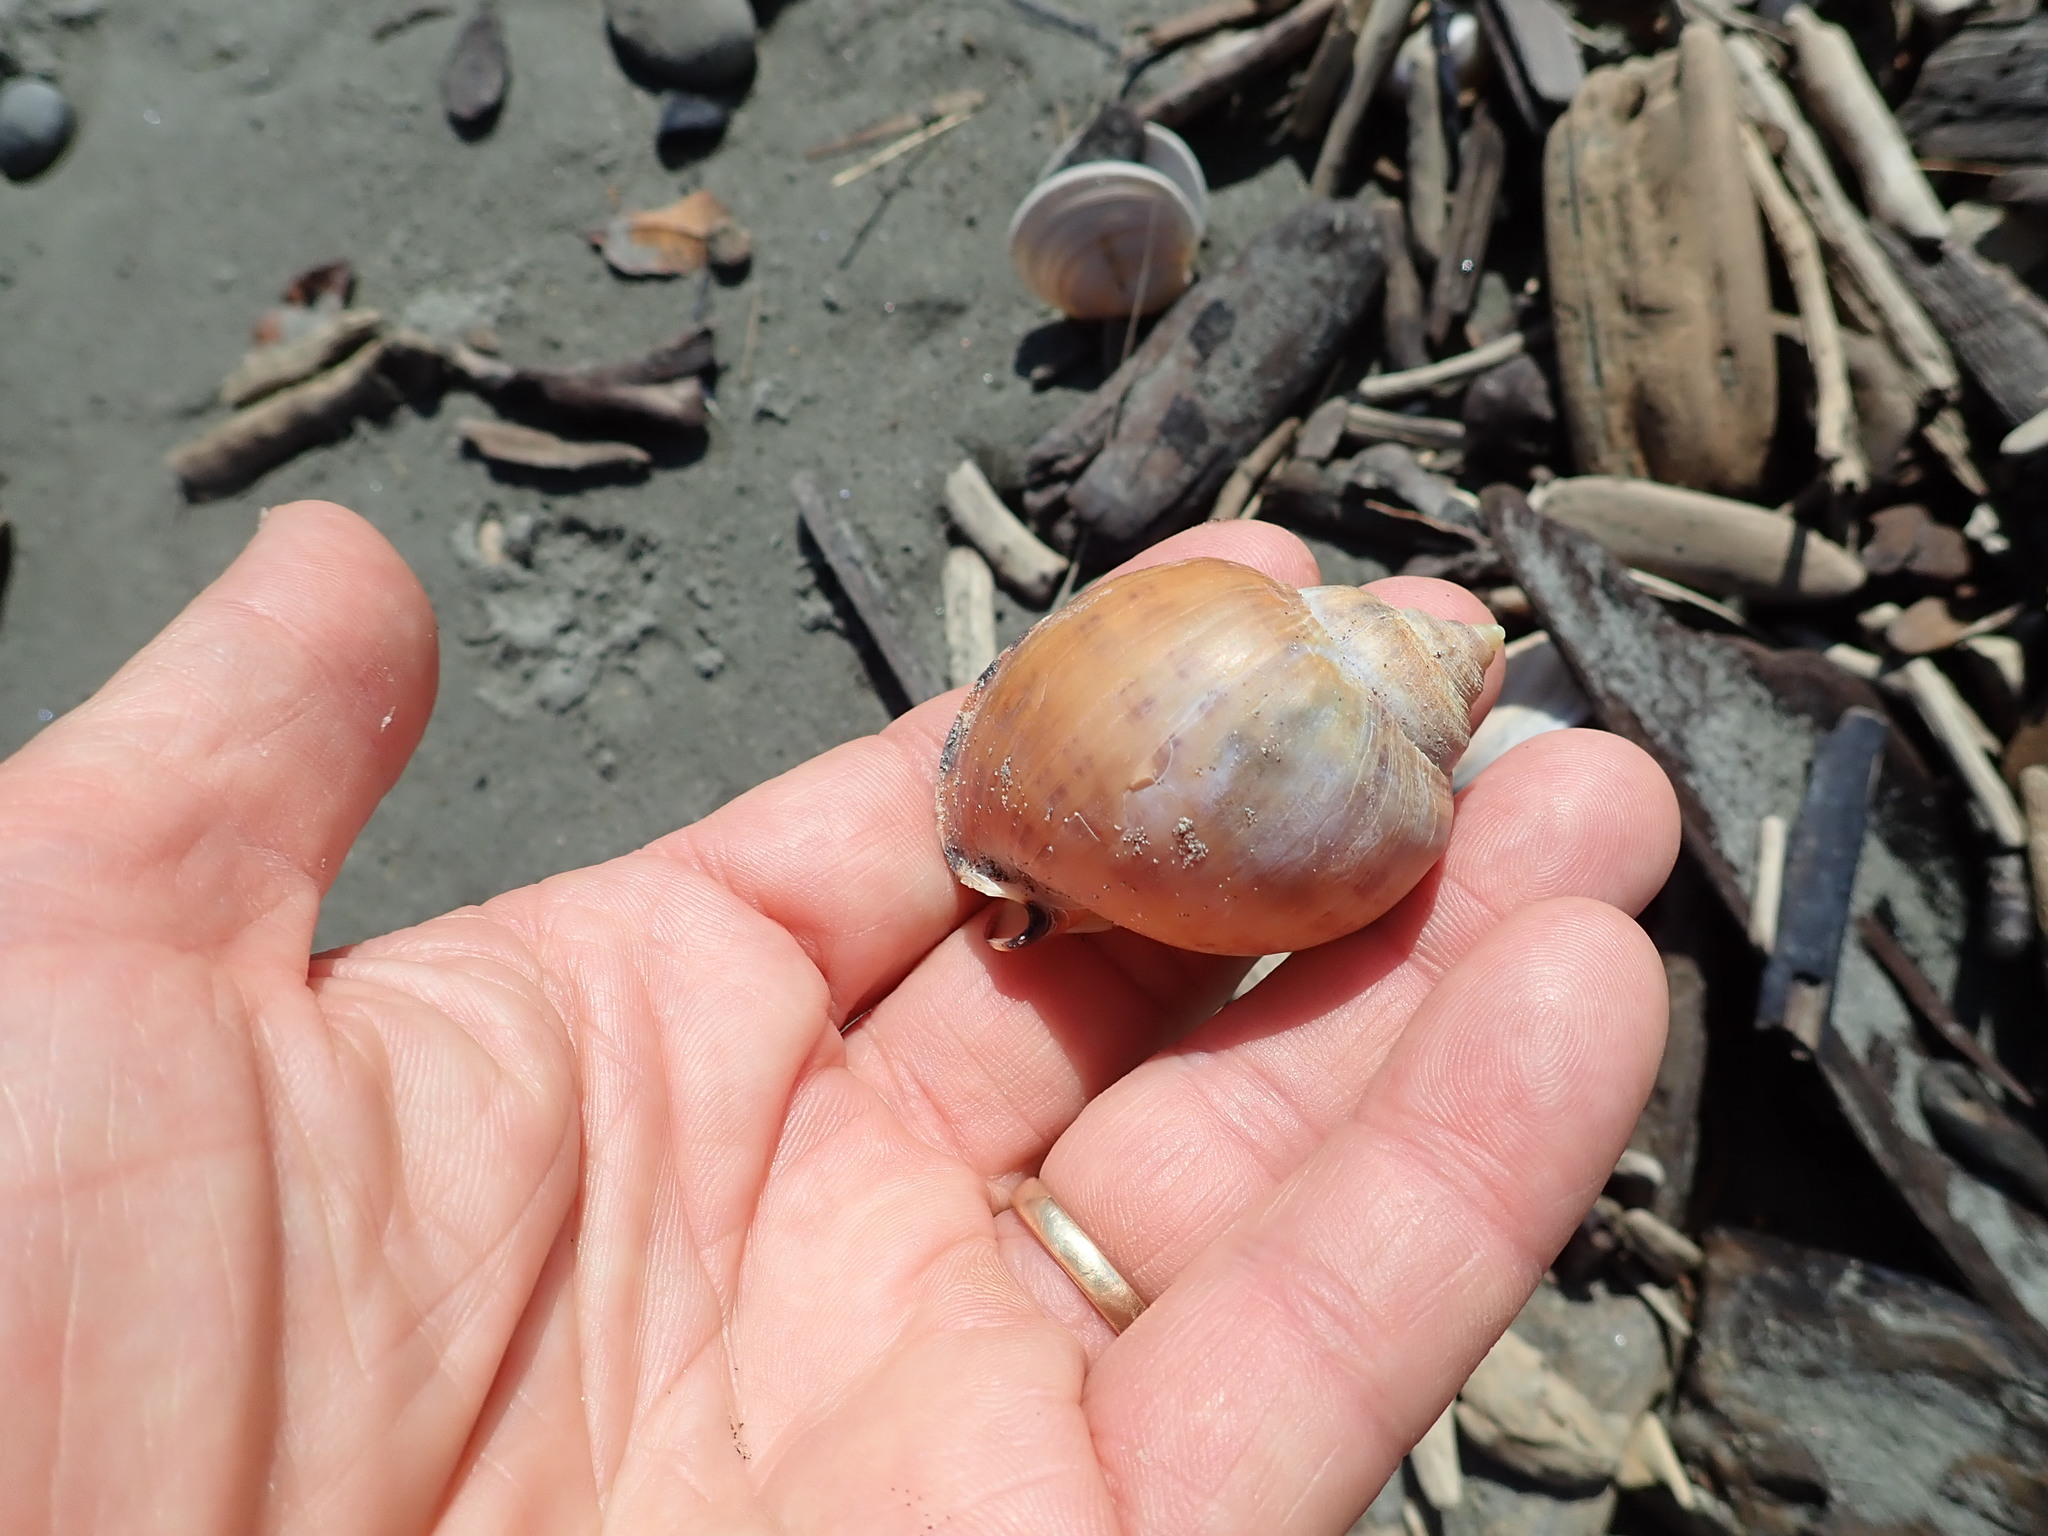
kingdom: Animalia
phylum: Mollusca
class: Gastropoda
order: Littorinimorpha
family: Cassidae
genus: Semicassis
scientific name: Semicassis pyrum
